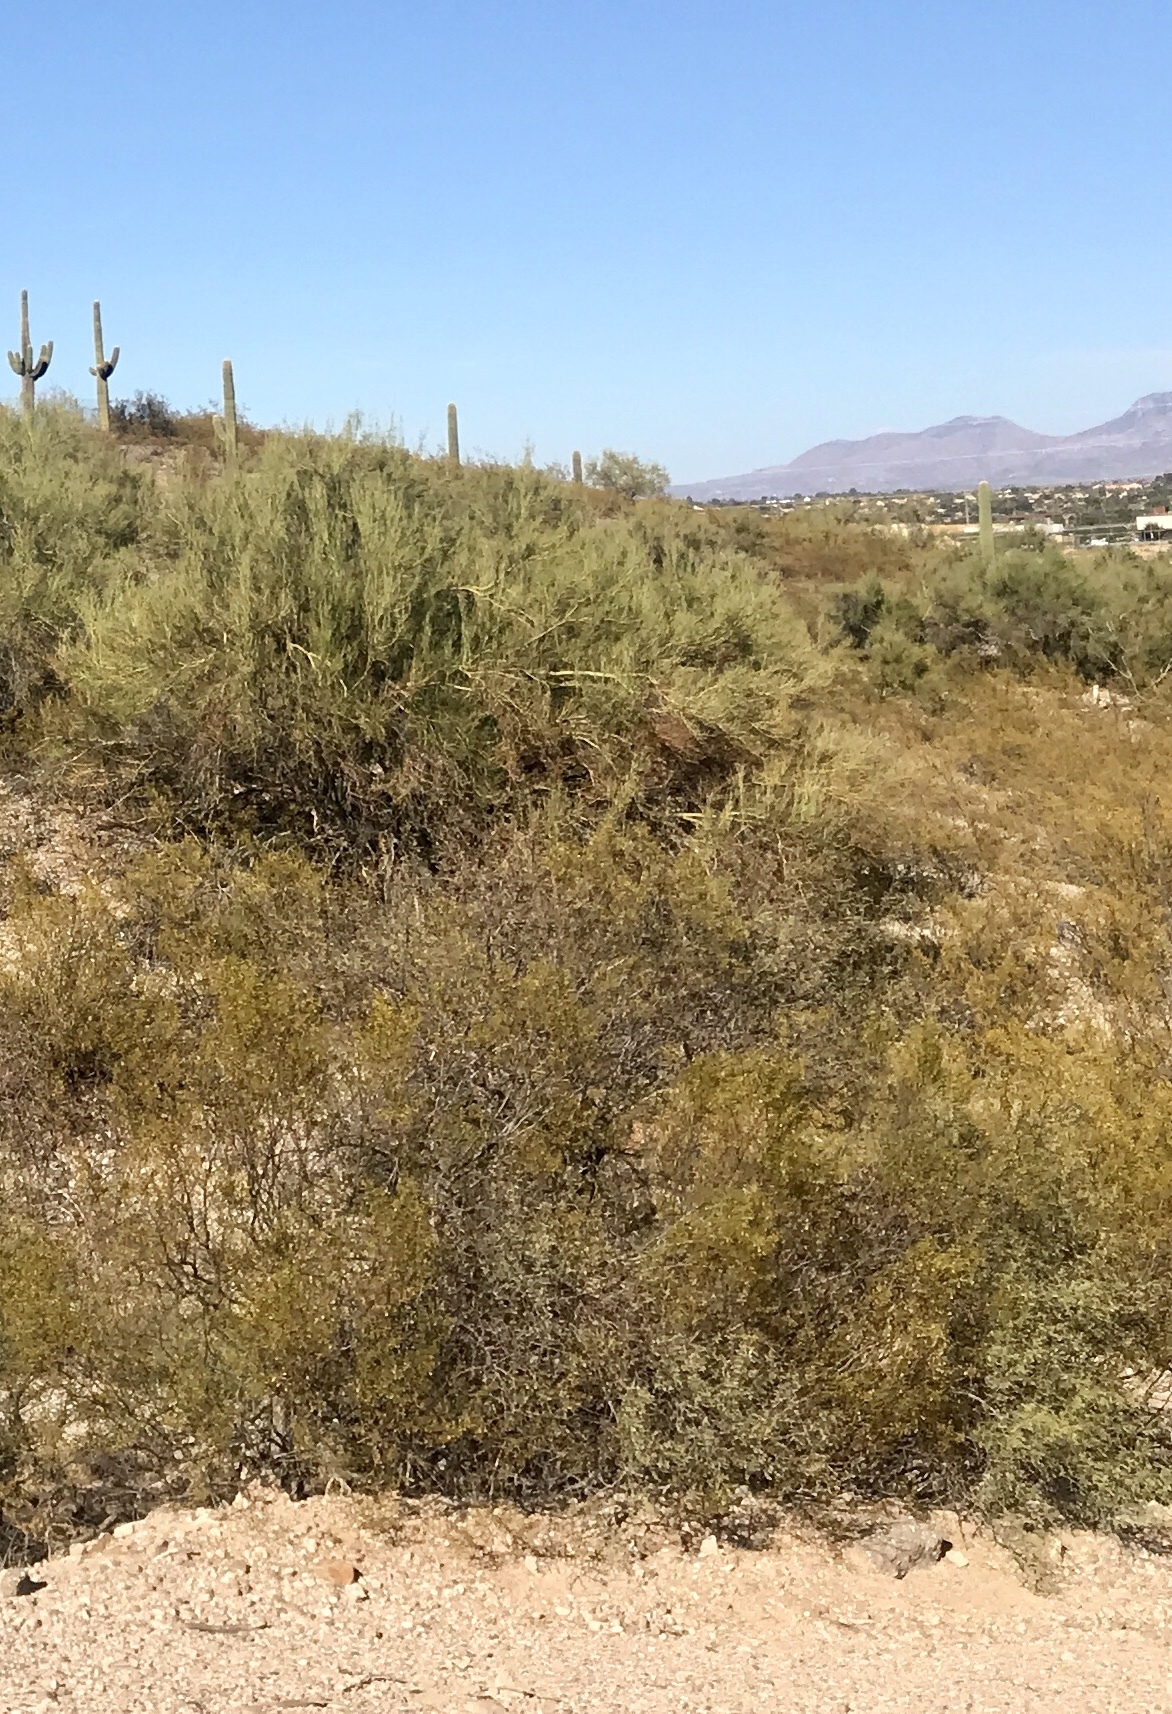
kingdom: Plantae
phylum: Tracheophyta
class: Magnoliopsida
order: Zygophyllales
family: Zygophyllaceae
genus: Larrea
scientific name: Larrea tridentata
